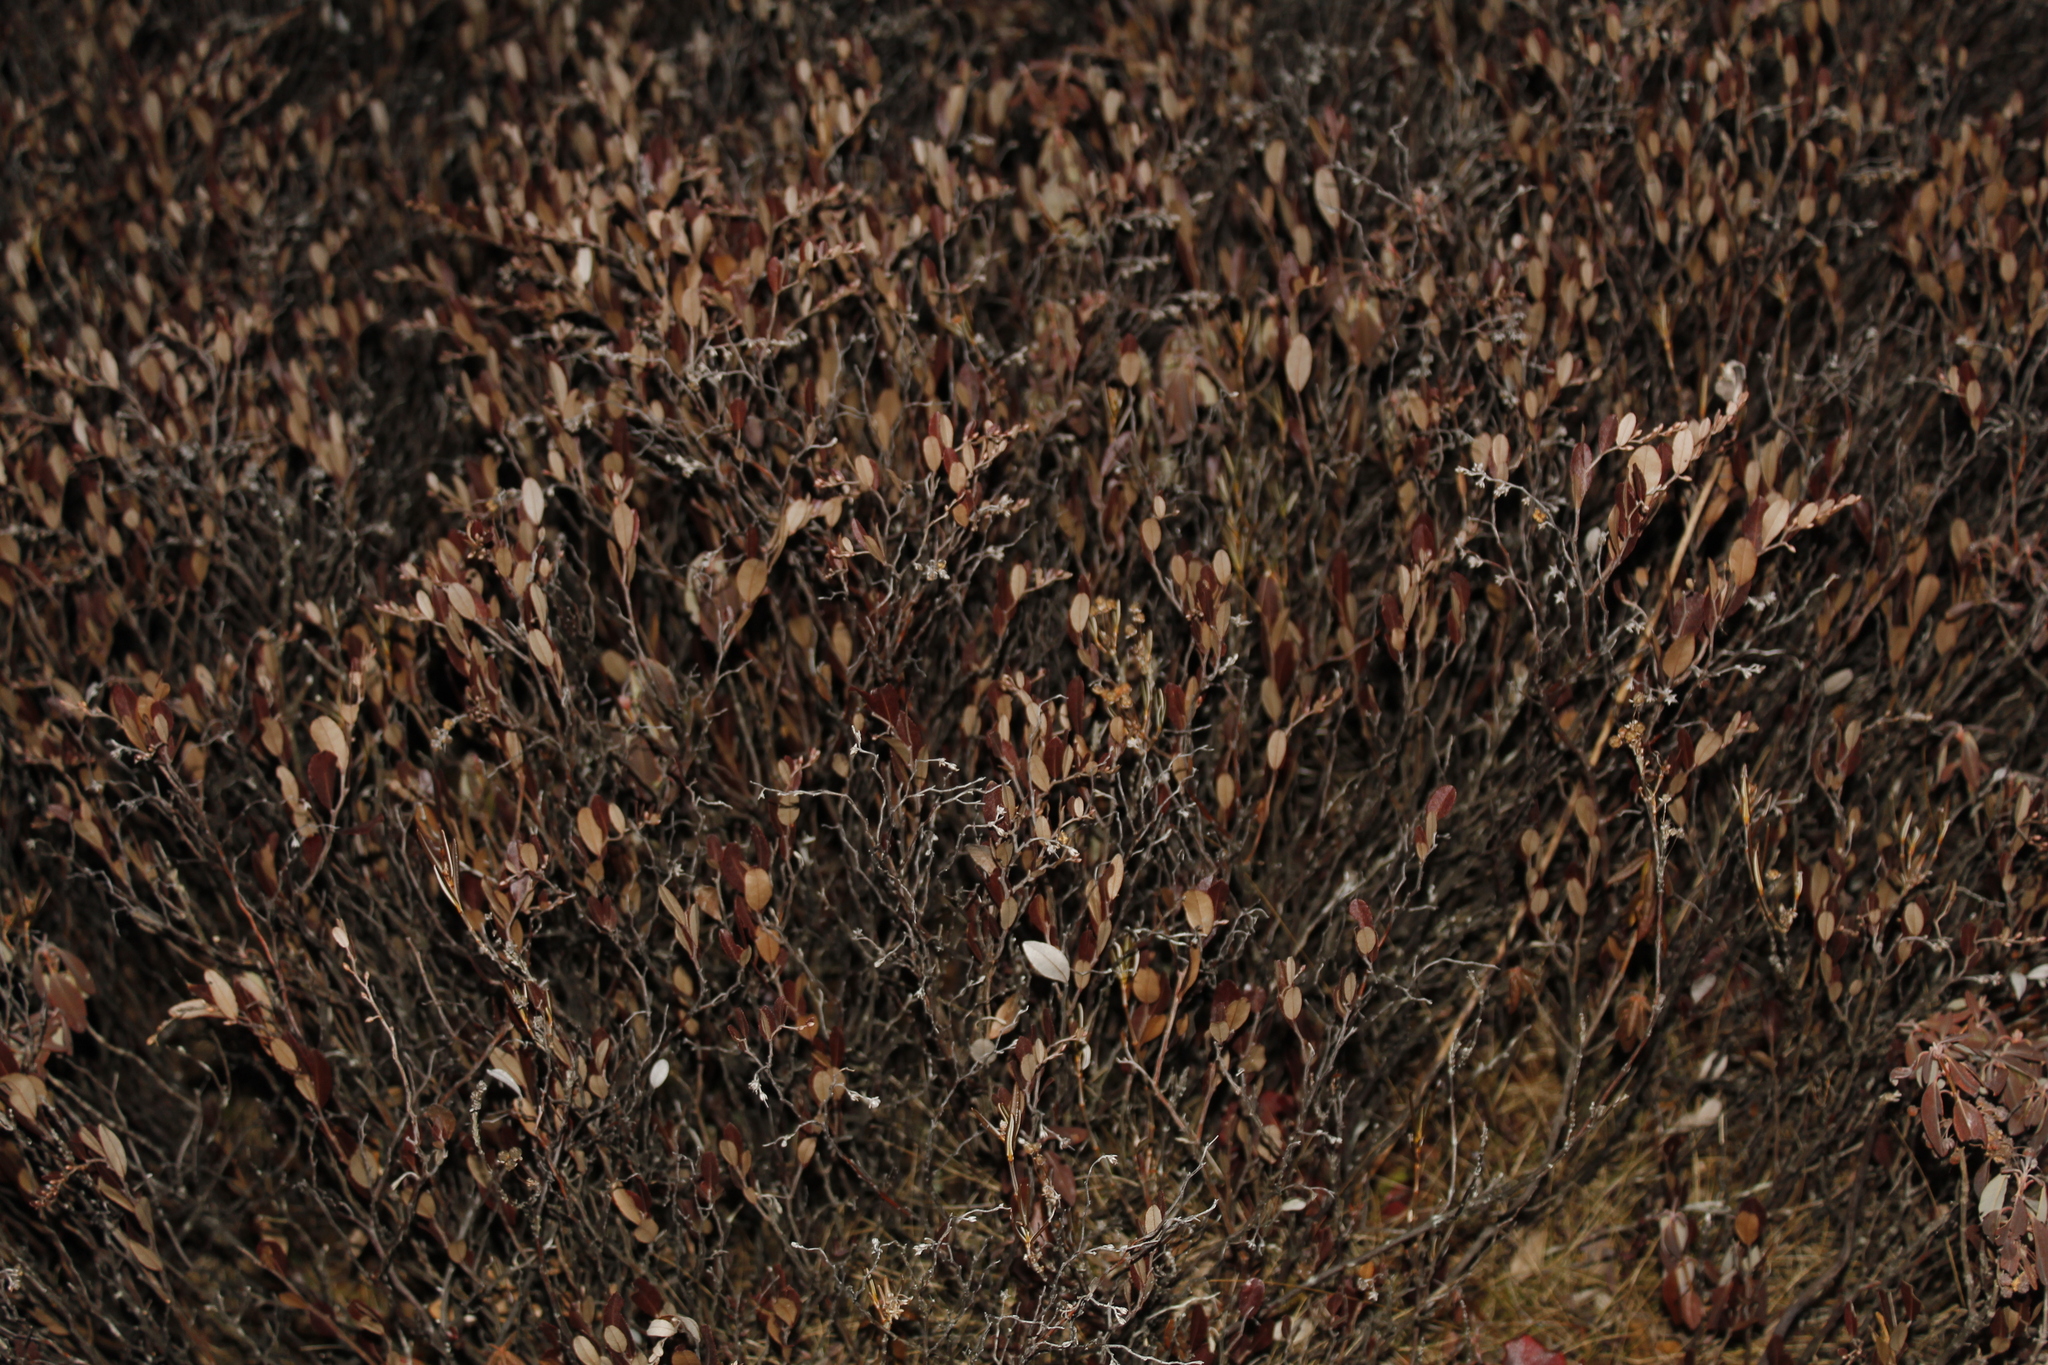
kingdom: Plantae
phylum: Tracheophyta
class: Magnoliopsida
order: Ericales
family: Ericaceae
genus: Chamaedaphne
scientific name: Chamaedaphne calyculata
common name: Leatherleaf
